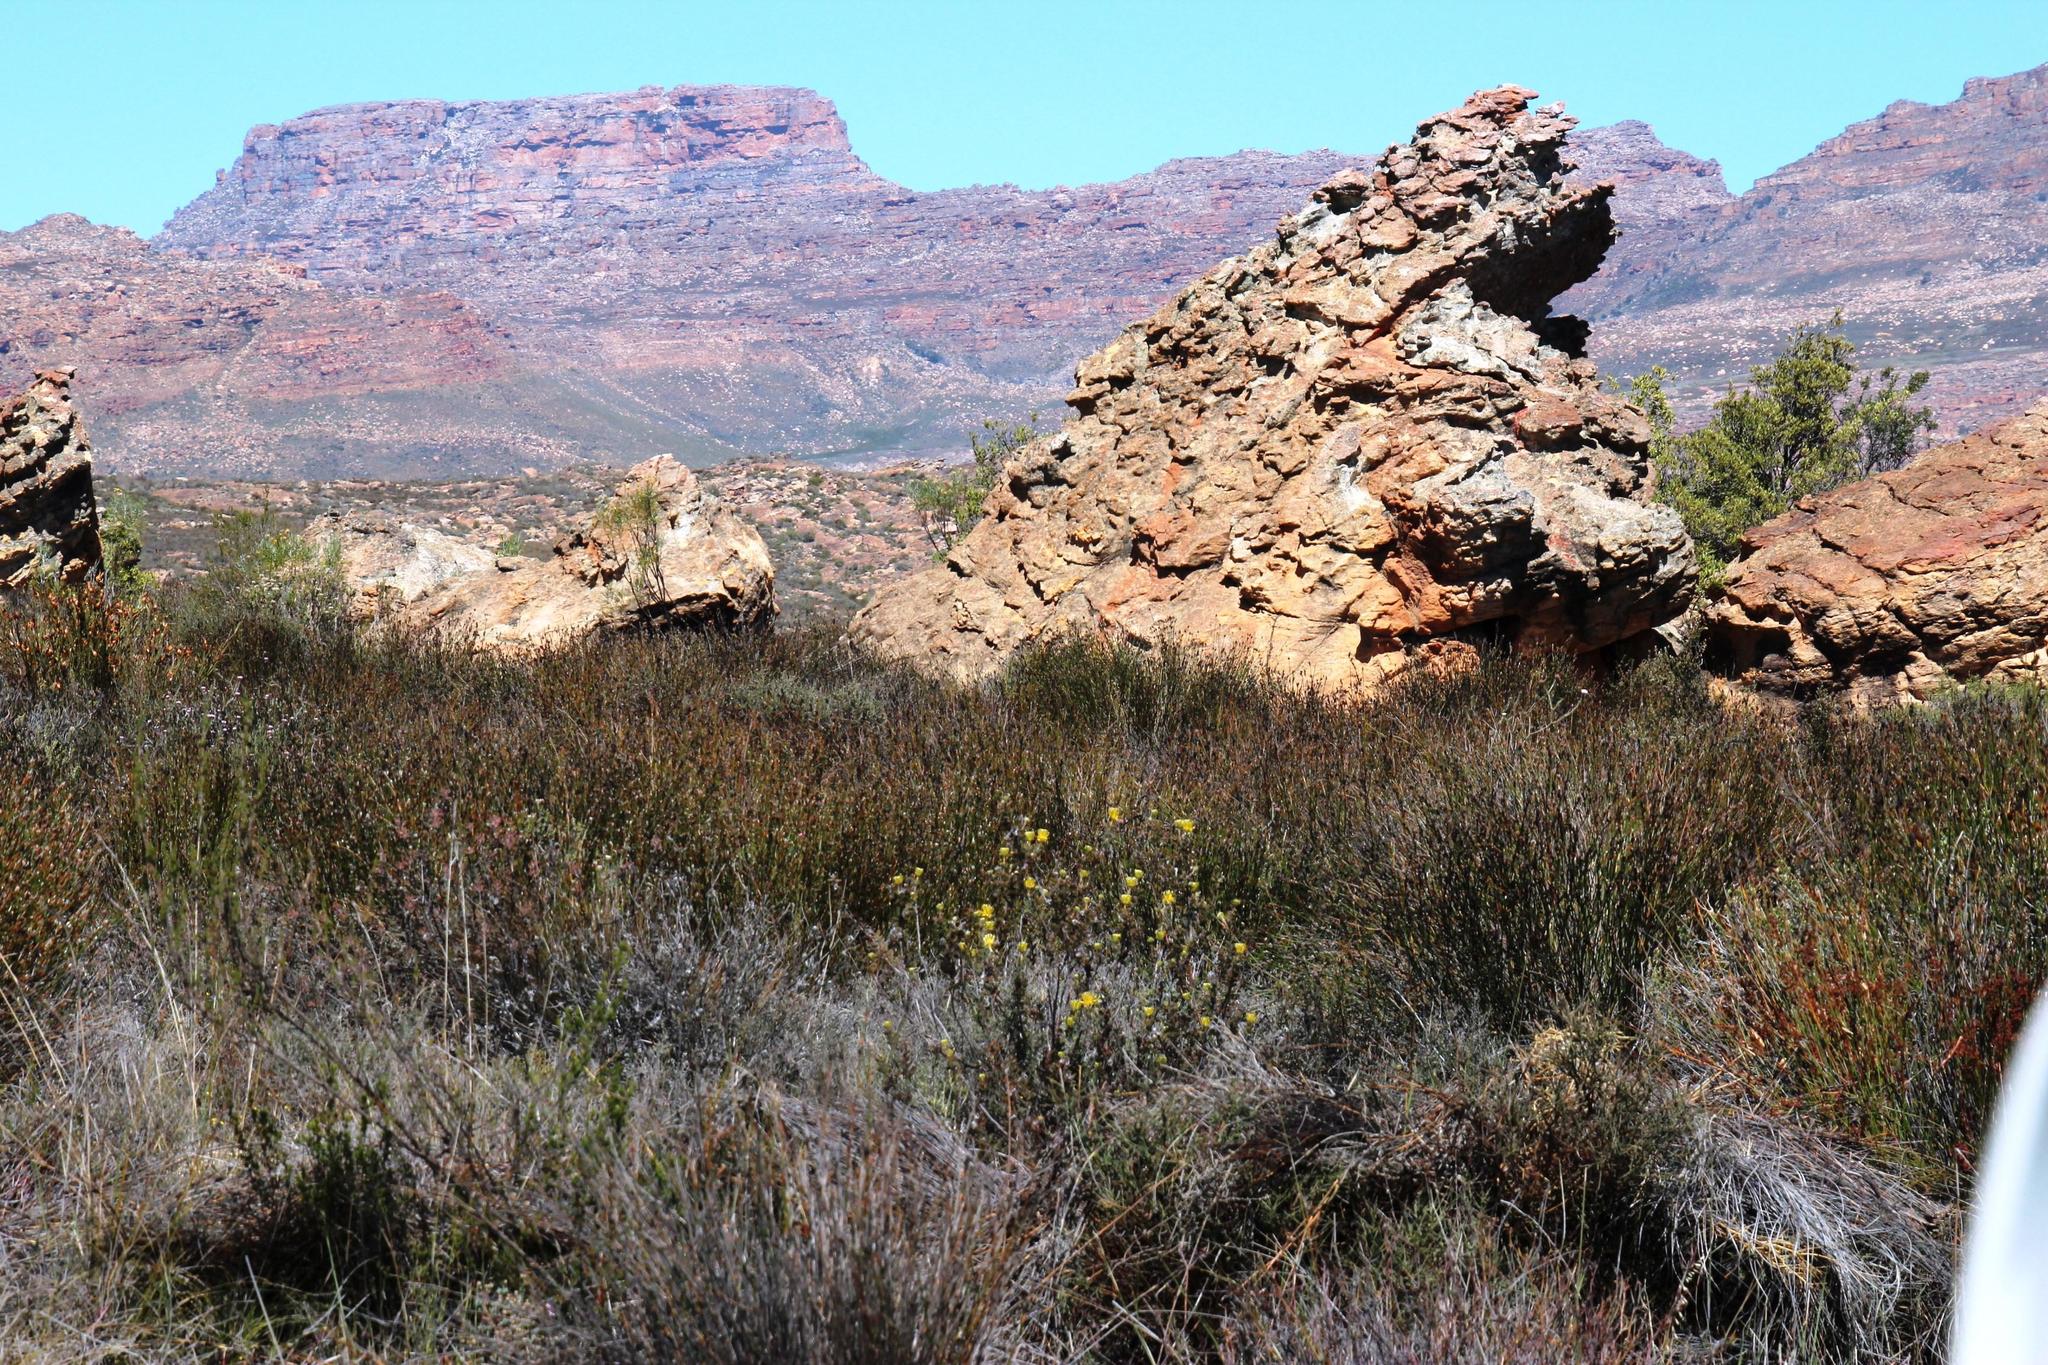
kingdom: Plantae
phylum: Tracheophyta
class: Magnoliopsida
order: Proteales
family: Proteaceae
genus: Serruria
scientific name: Serruria flava
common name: Spiderhead
